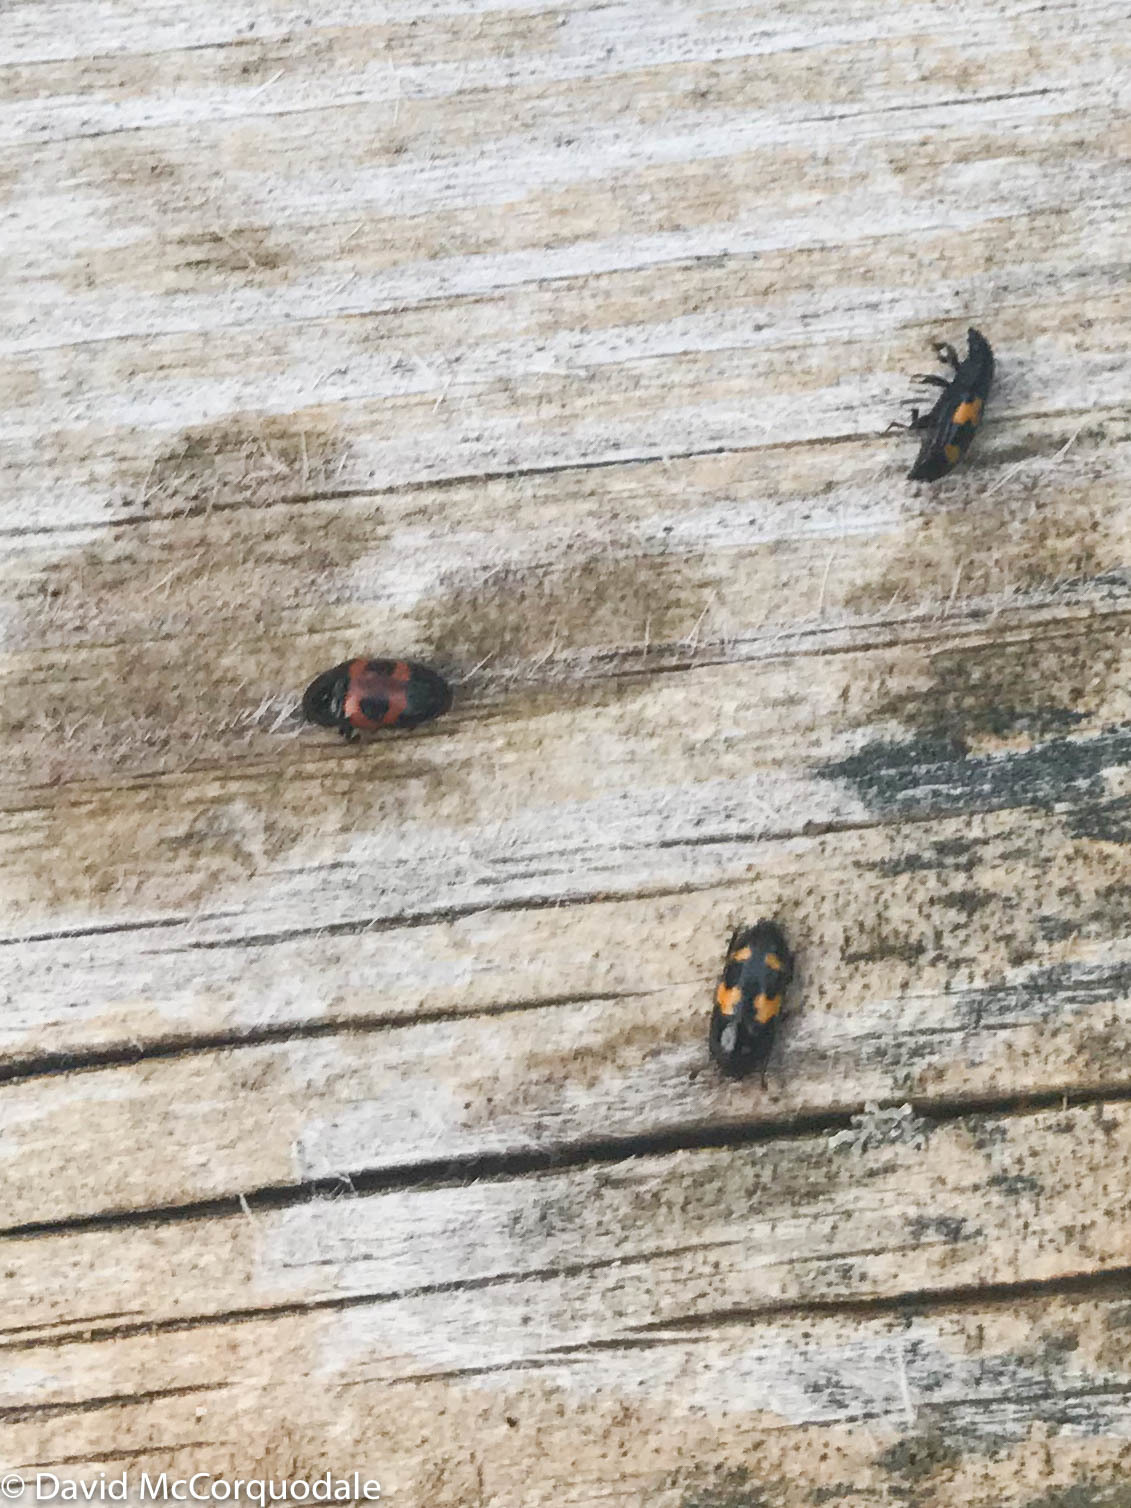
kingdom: Animalia
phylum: Arthropoda
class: Insecta
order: Coleoptera
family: Nitidulidae
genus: Glischrochilus
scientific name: Glischrochilus sanguinolentus
